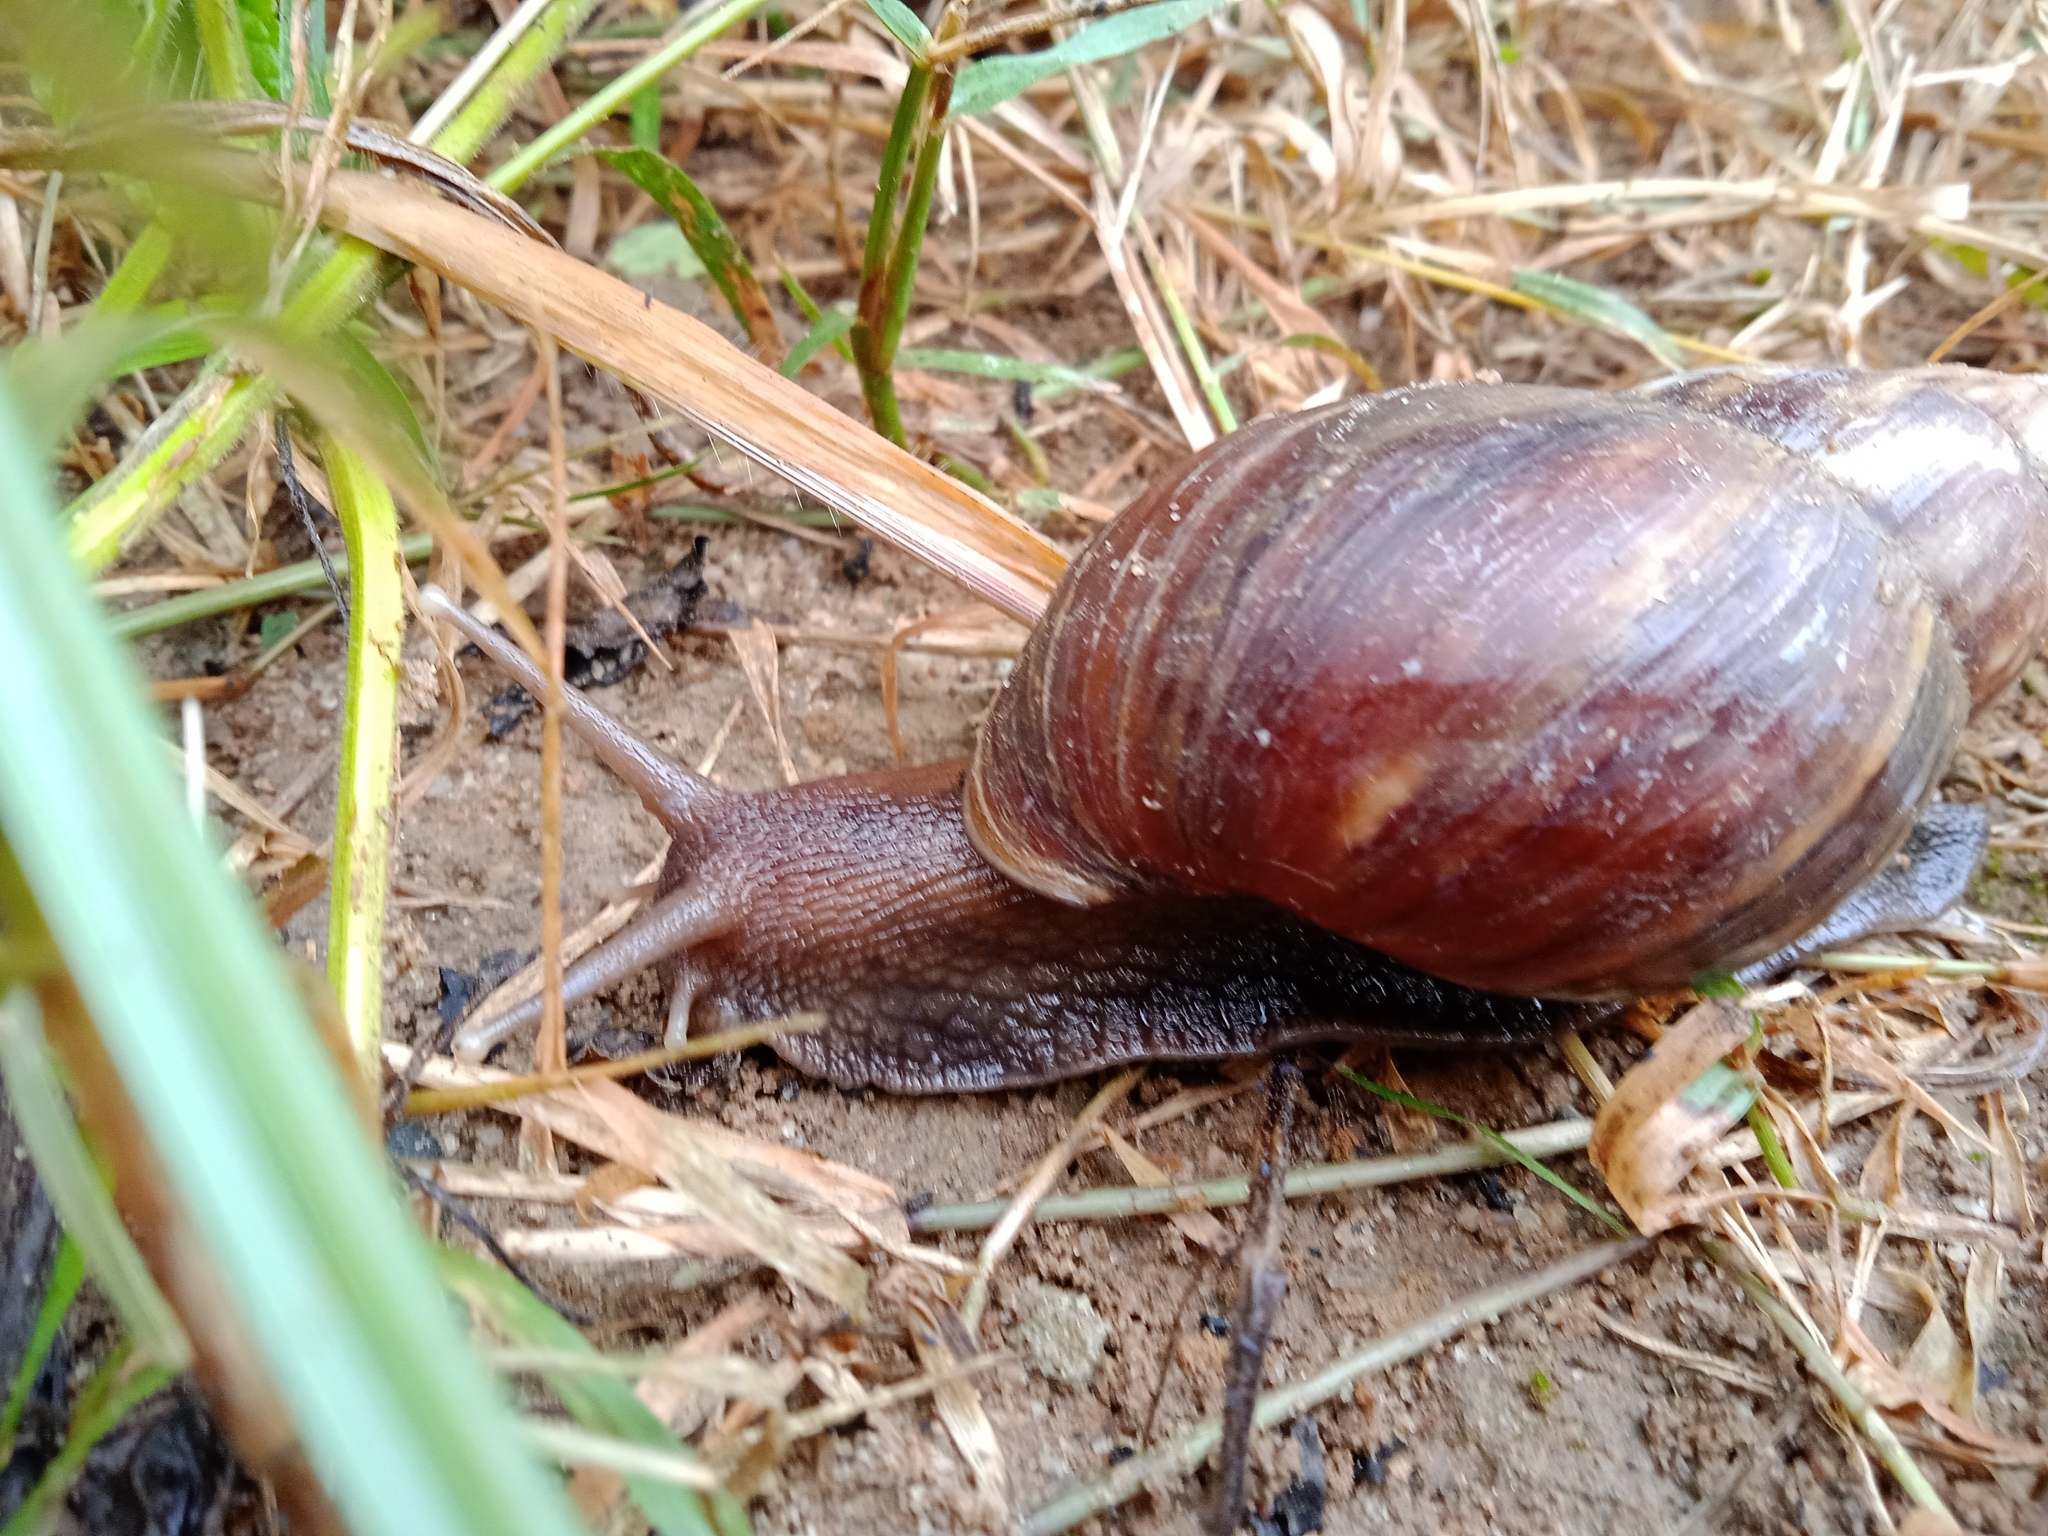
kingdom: Animalia
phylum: Mollusca
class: Gastropoda
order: Stylommatophora
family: Achatinidae
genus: Lissachatina
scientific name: Lissachatina fulica
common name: Giant african snail
